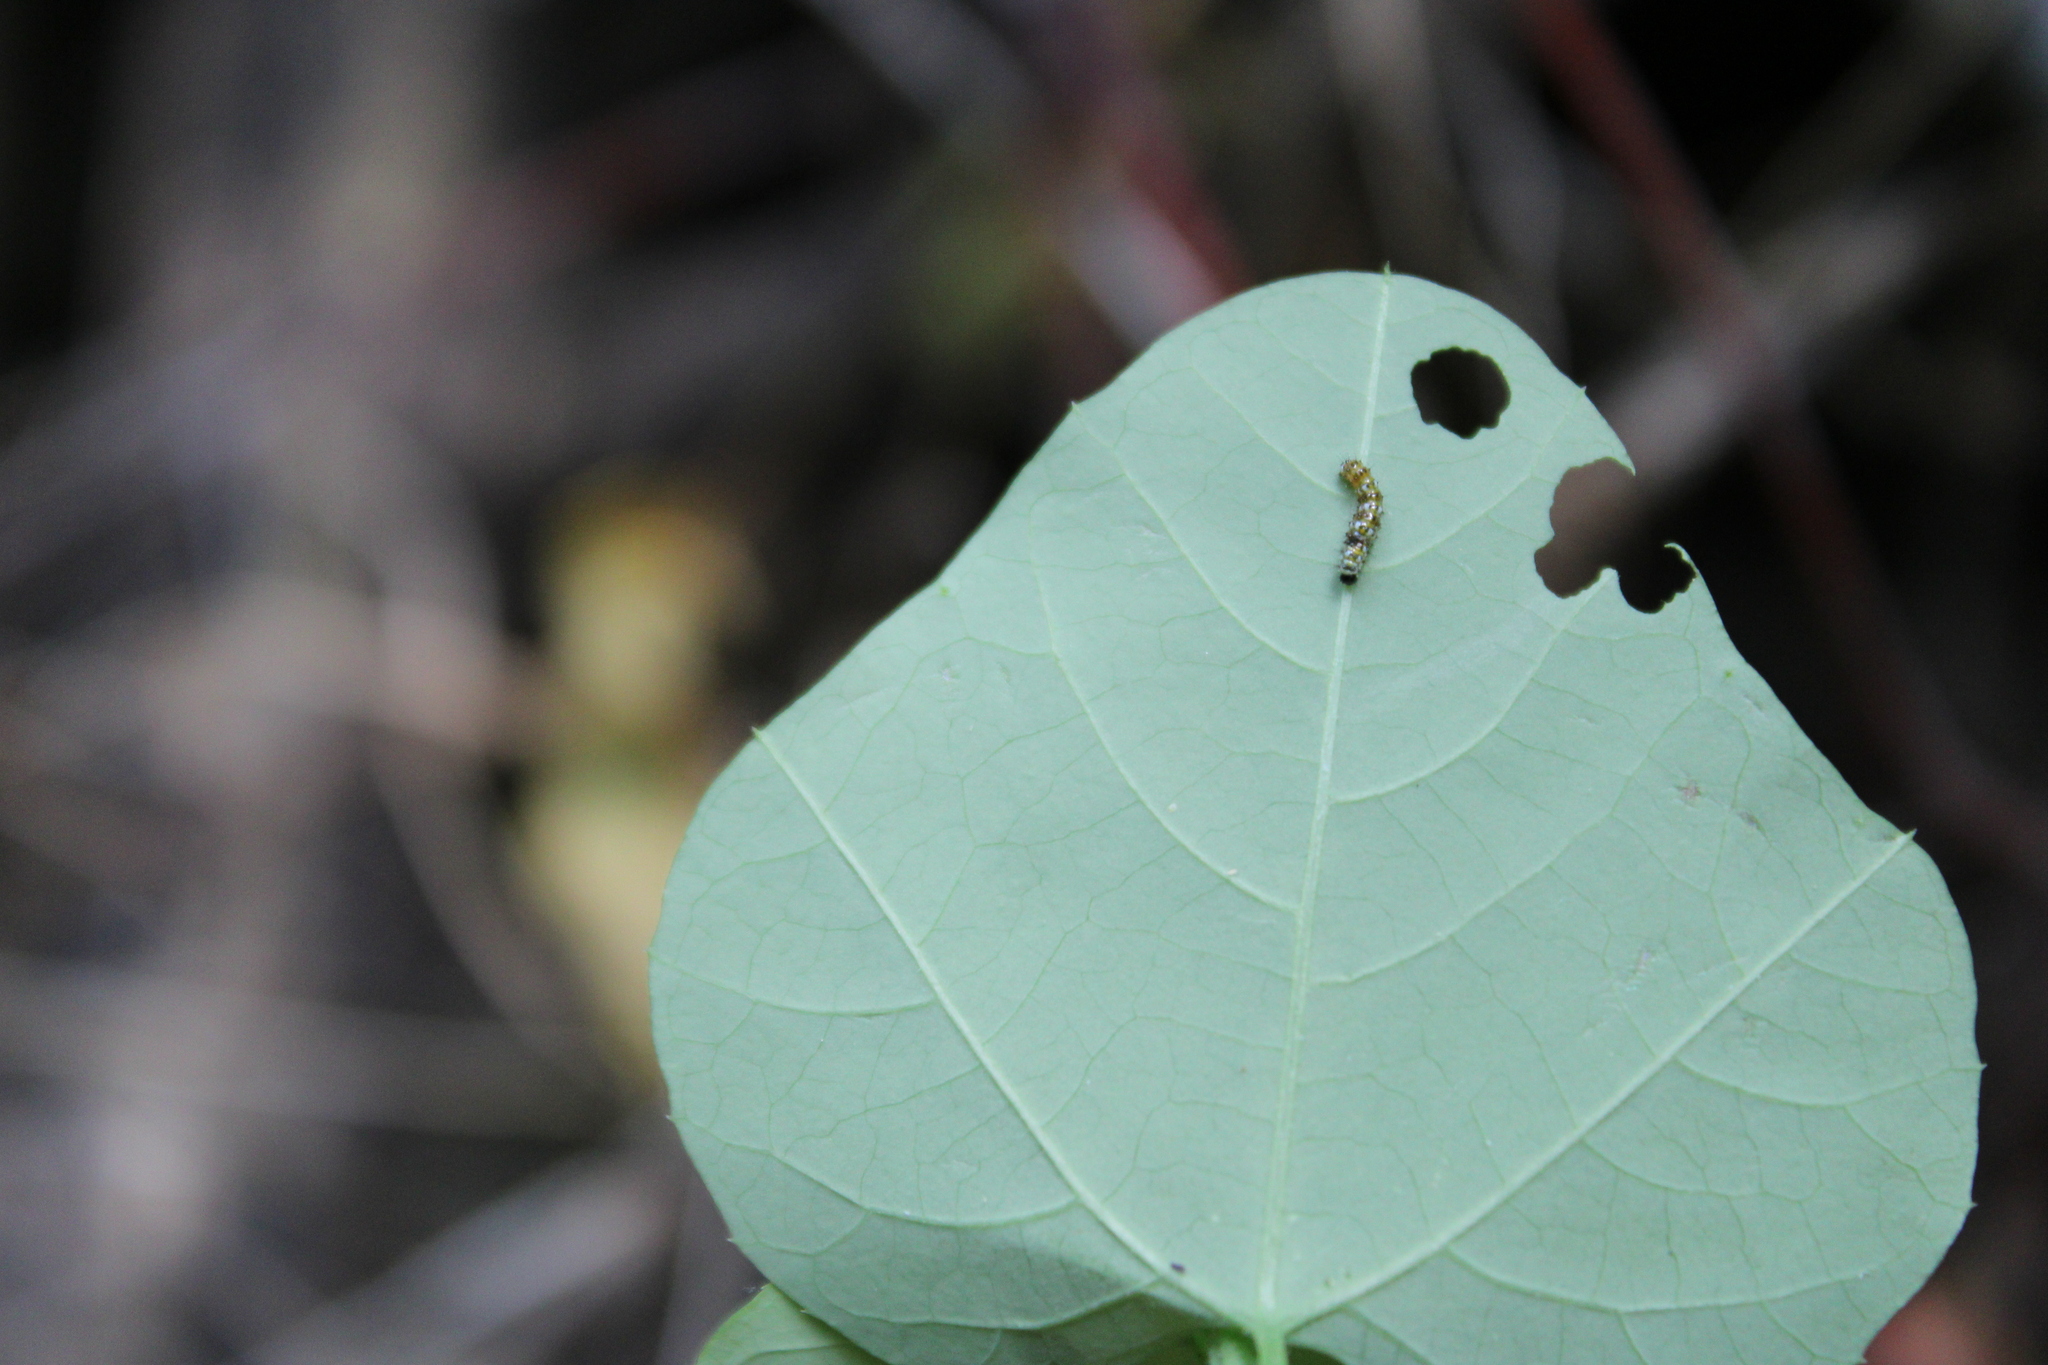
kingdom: Animalia
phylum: Arthropoda
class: Insecta
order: Lepidoptera
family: Nymphalidae
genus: Dione
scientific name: Dione moneta
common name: Mexican silverspot
